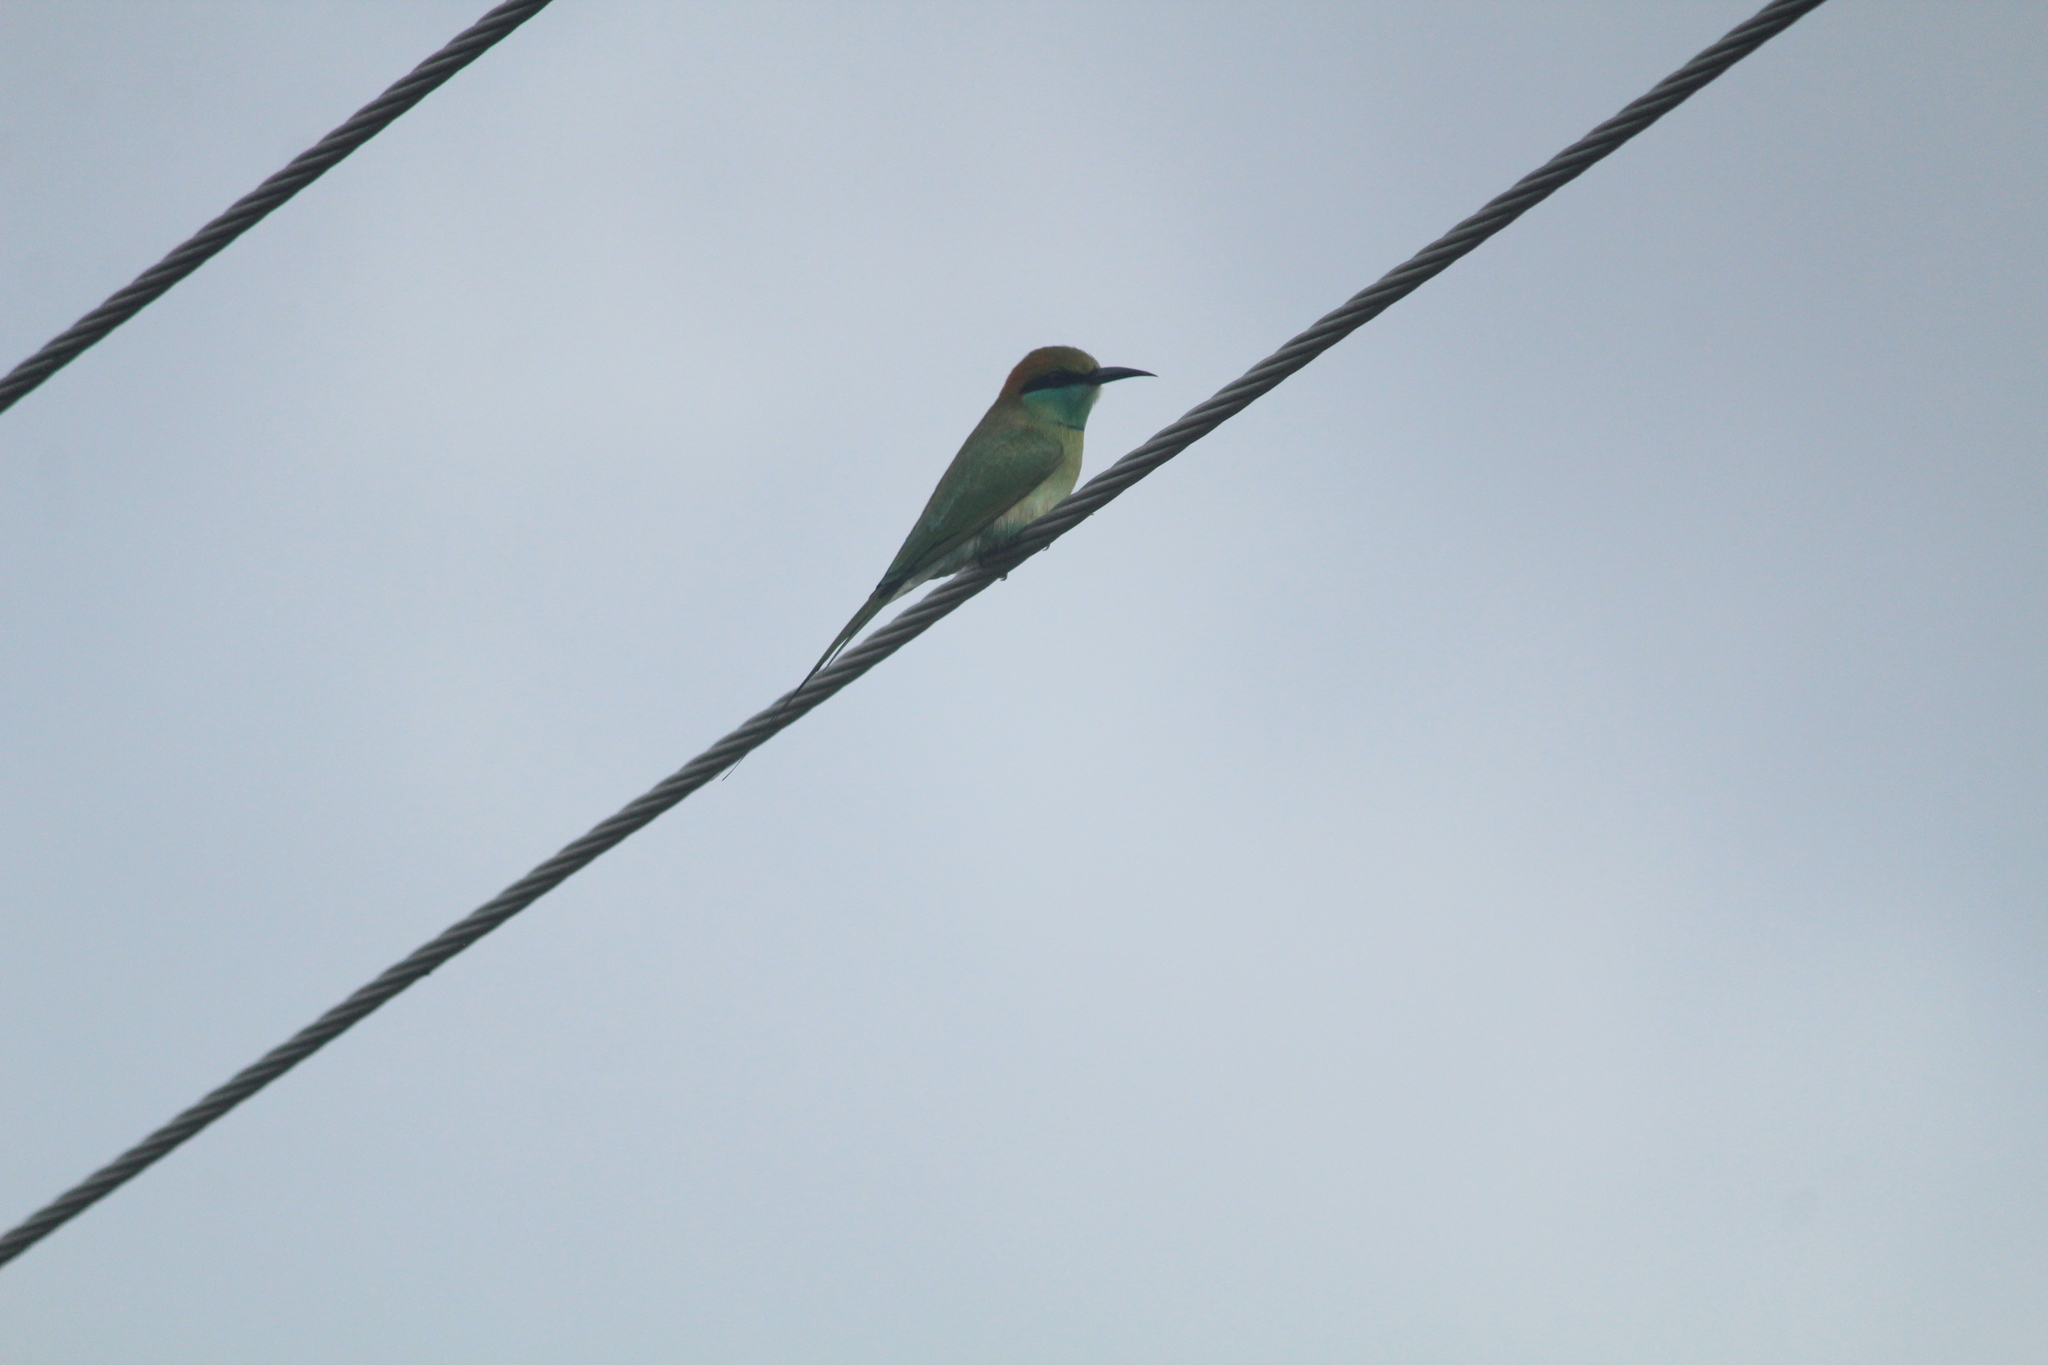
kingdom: Animalia
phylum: Chordata
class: Aves
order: Coraciiformes
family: Meropidae
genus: Merops
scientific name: Merops orientalis
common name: Green bee-eater
